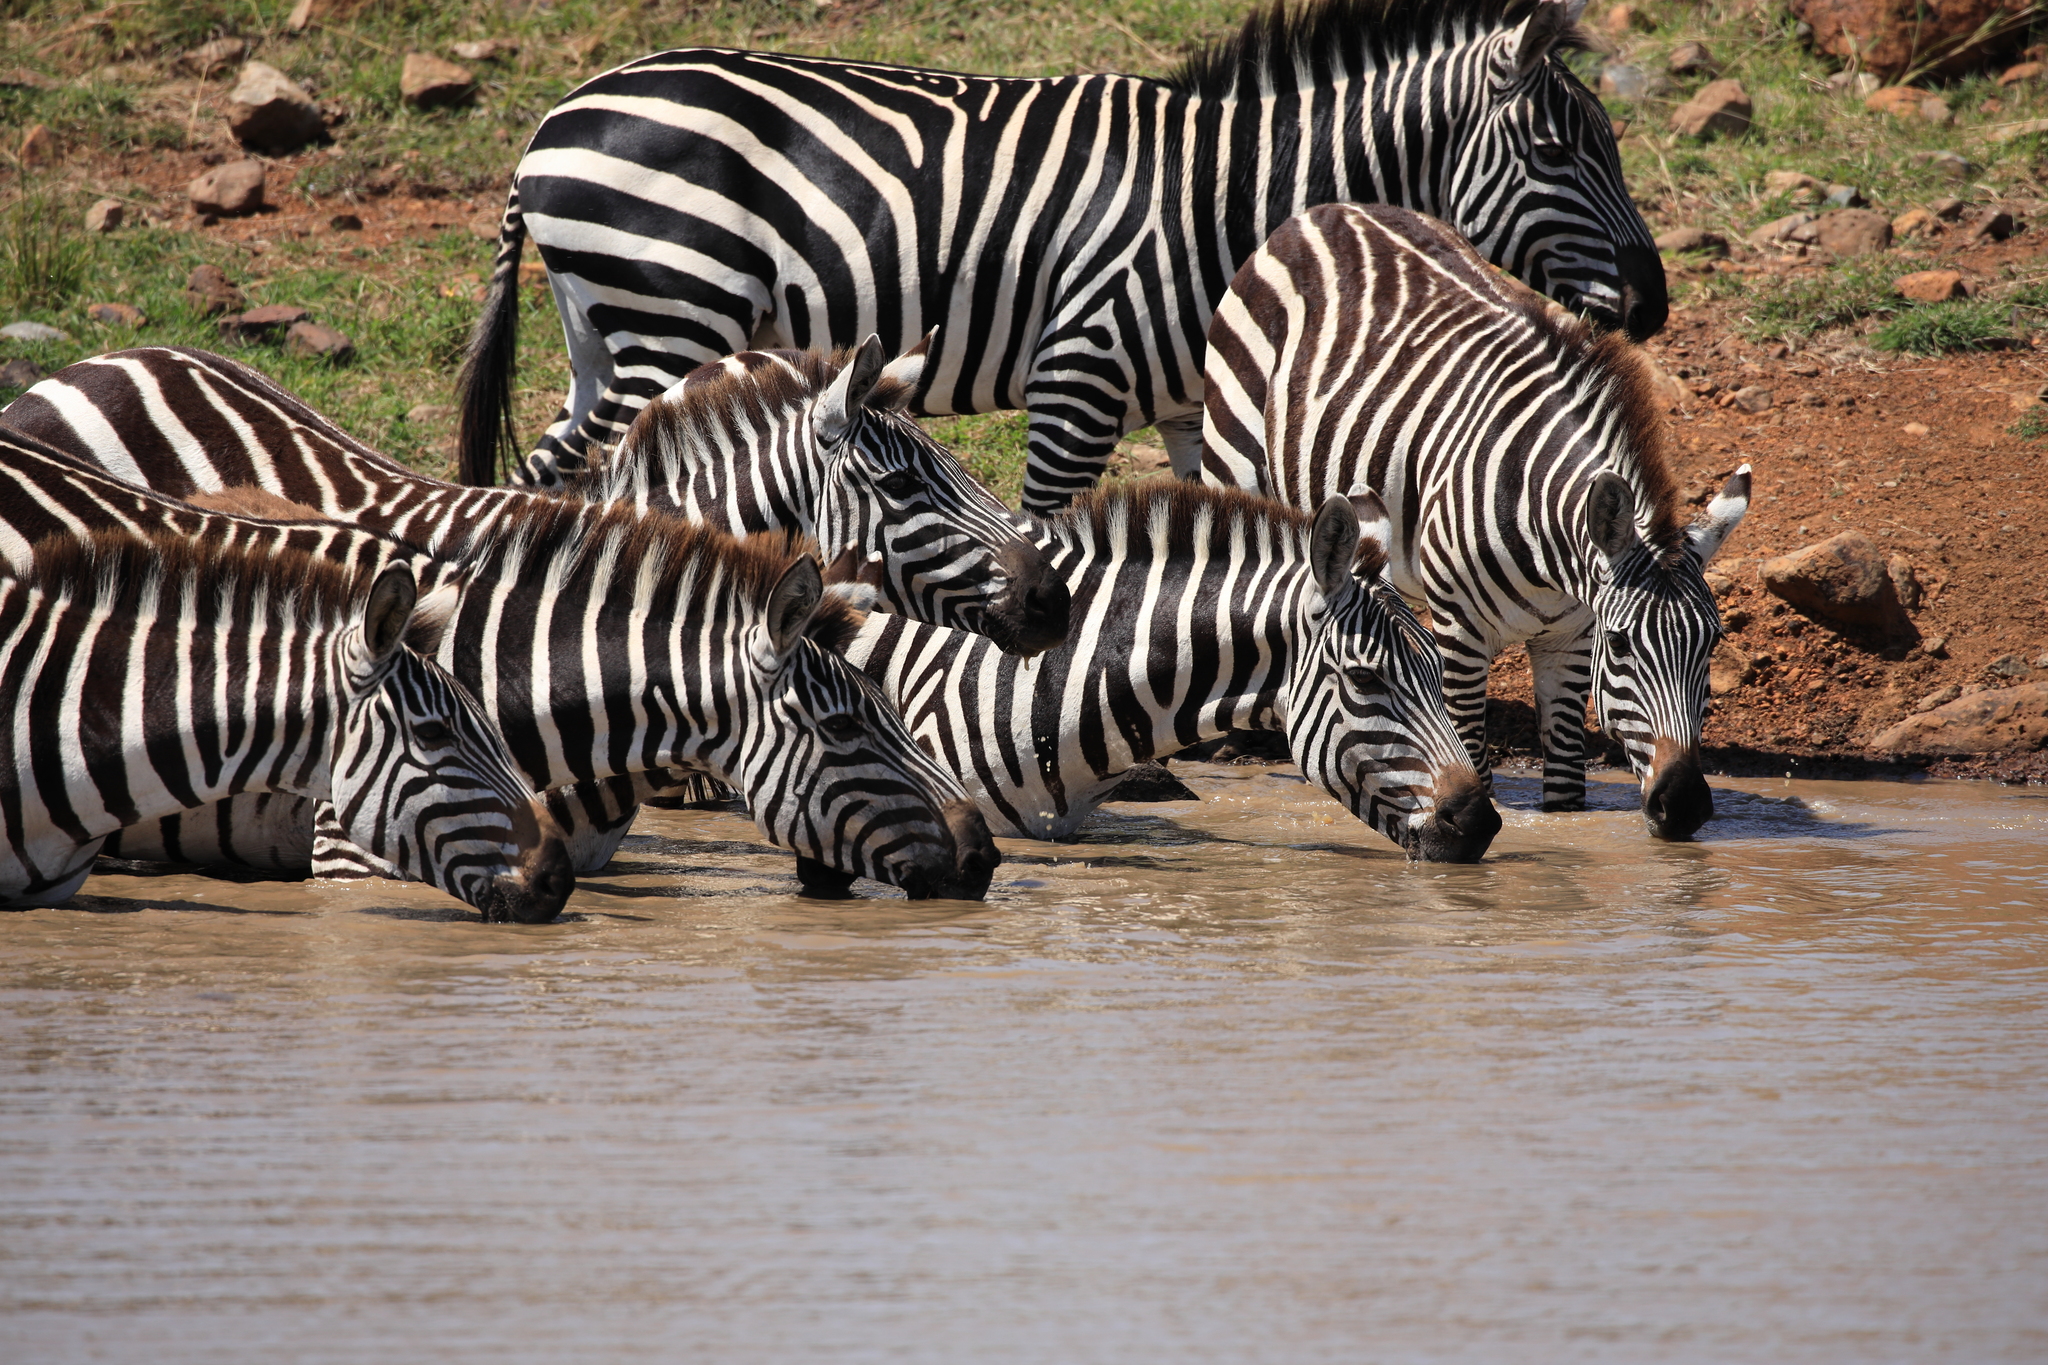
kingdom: Animalia
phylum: Chordata
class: Mammalia
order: Perissodactyla
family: Equidae
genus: Equus
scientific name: Equus quagga
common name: Plains zebra
